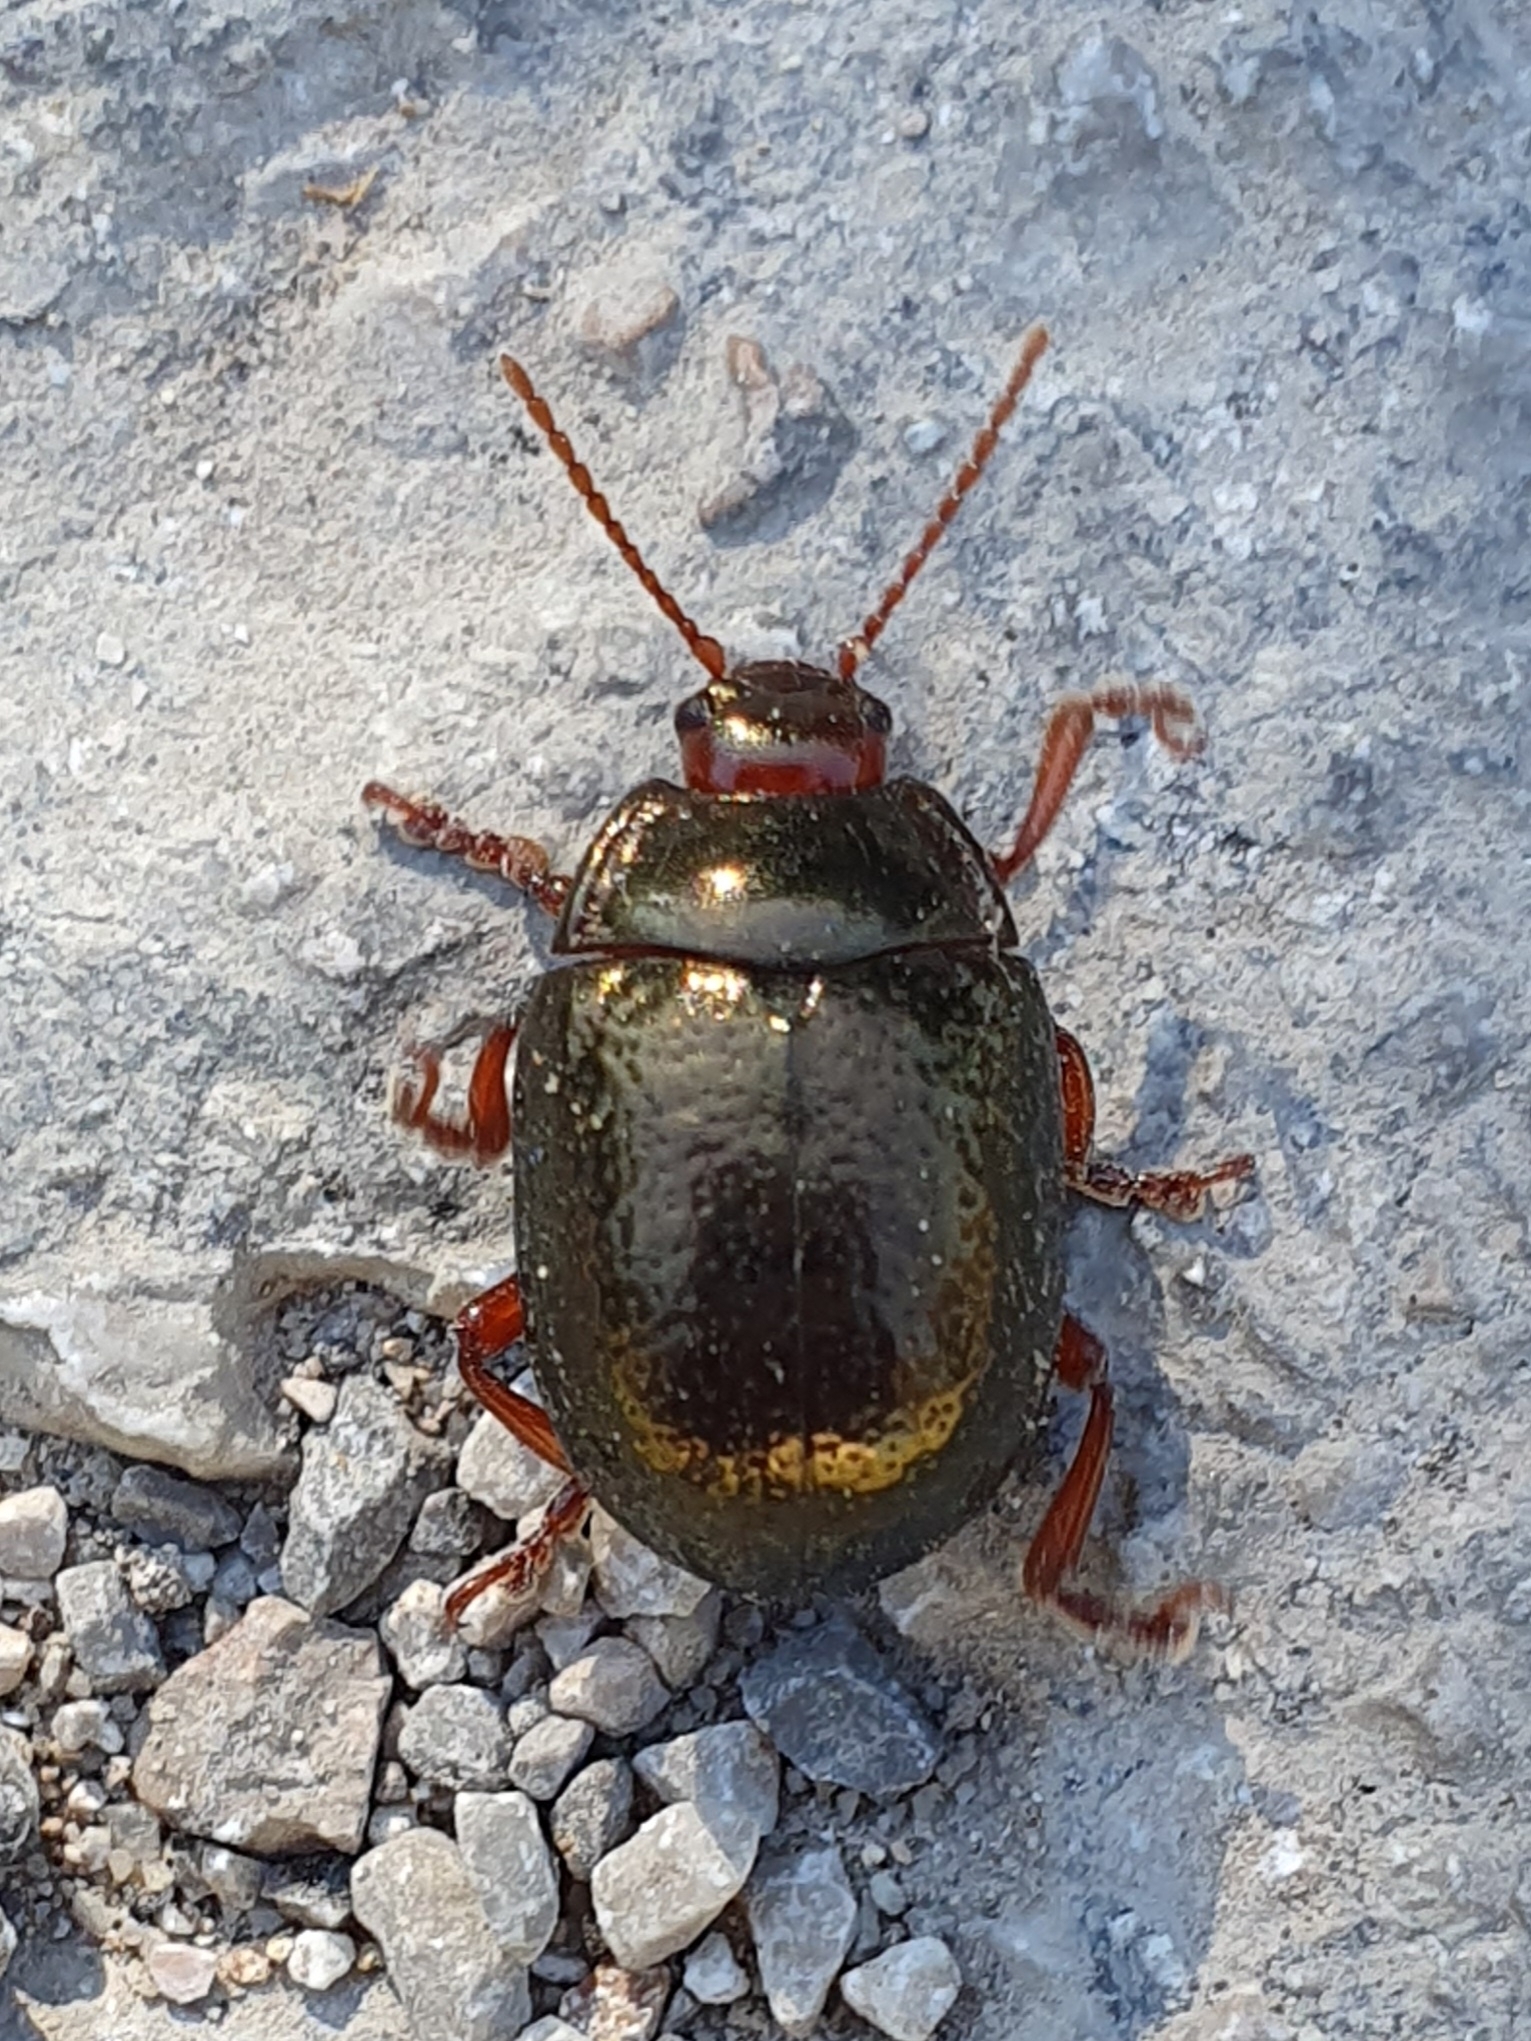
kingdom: Animalia
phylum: Arthropoda
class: Insecta
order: Coleoptera
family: Chrysomelidae
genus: Chrysolina
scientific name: Chrysolina bankii
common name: Leaf beetle
